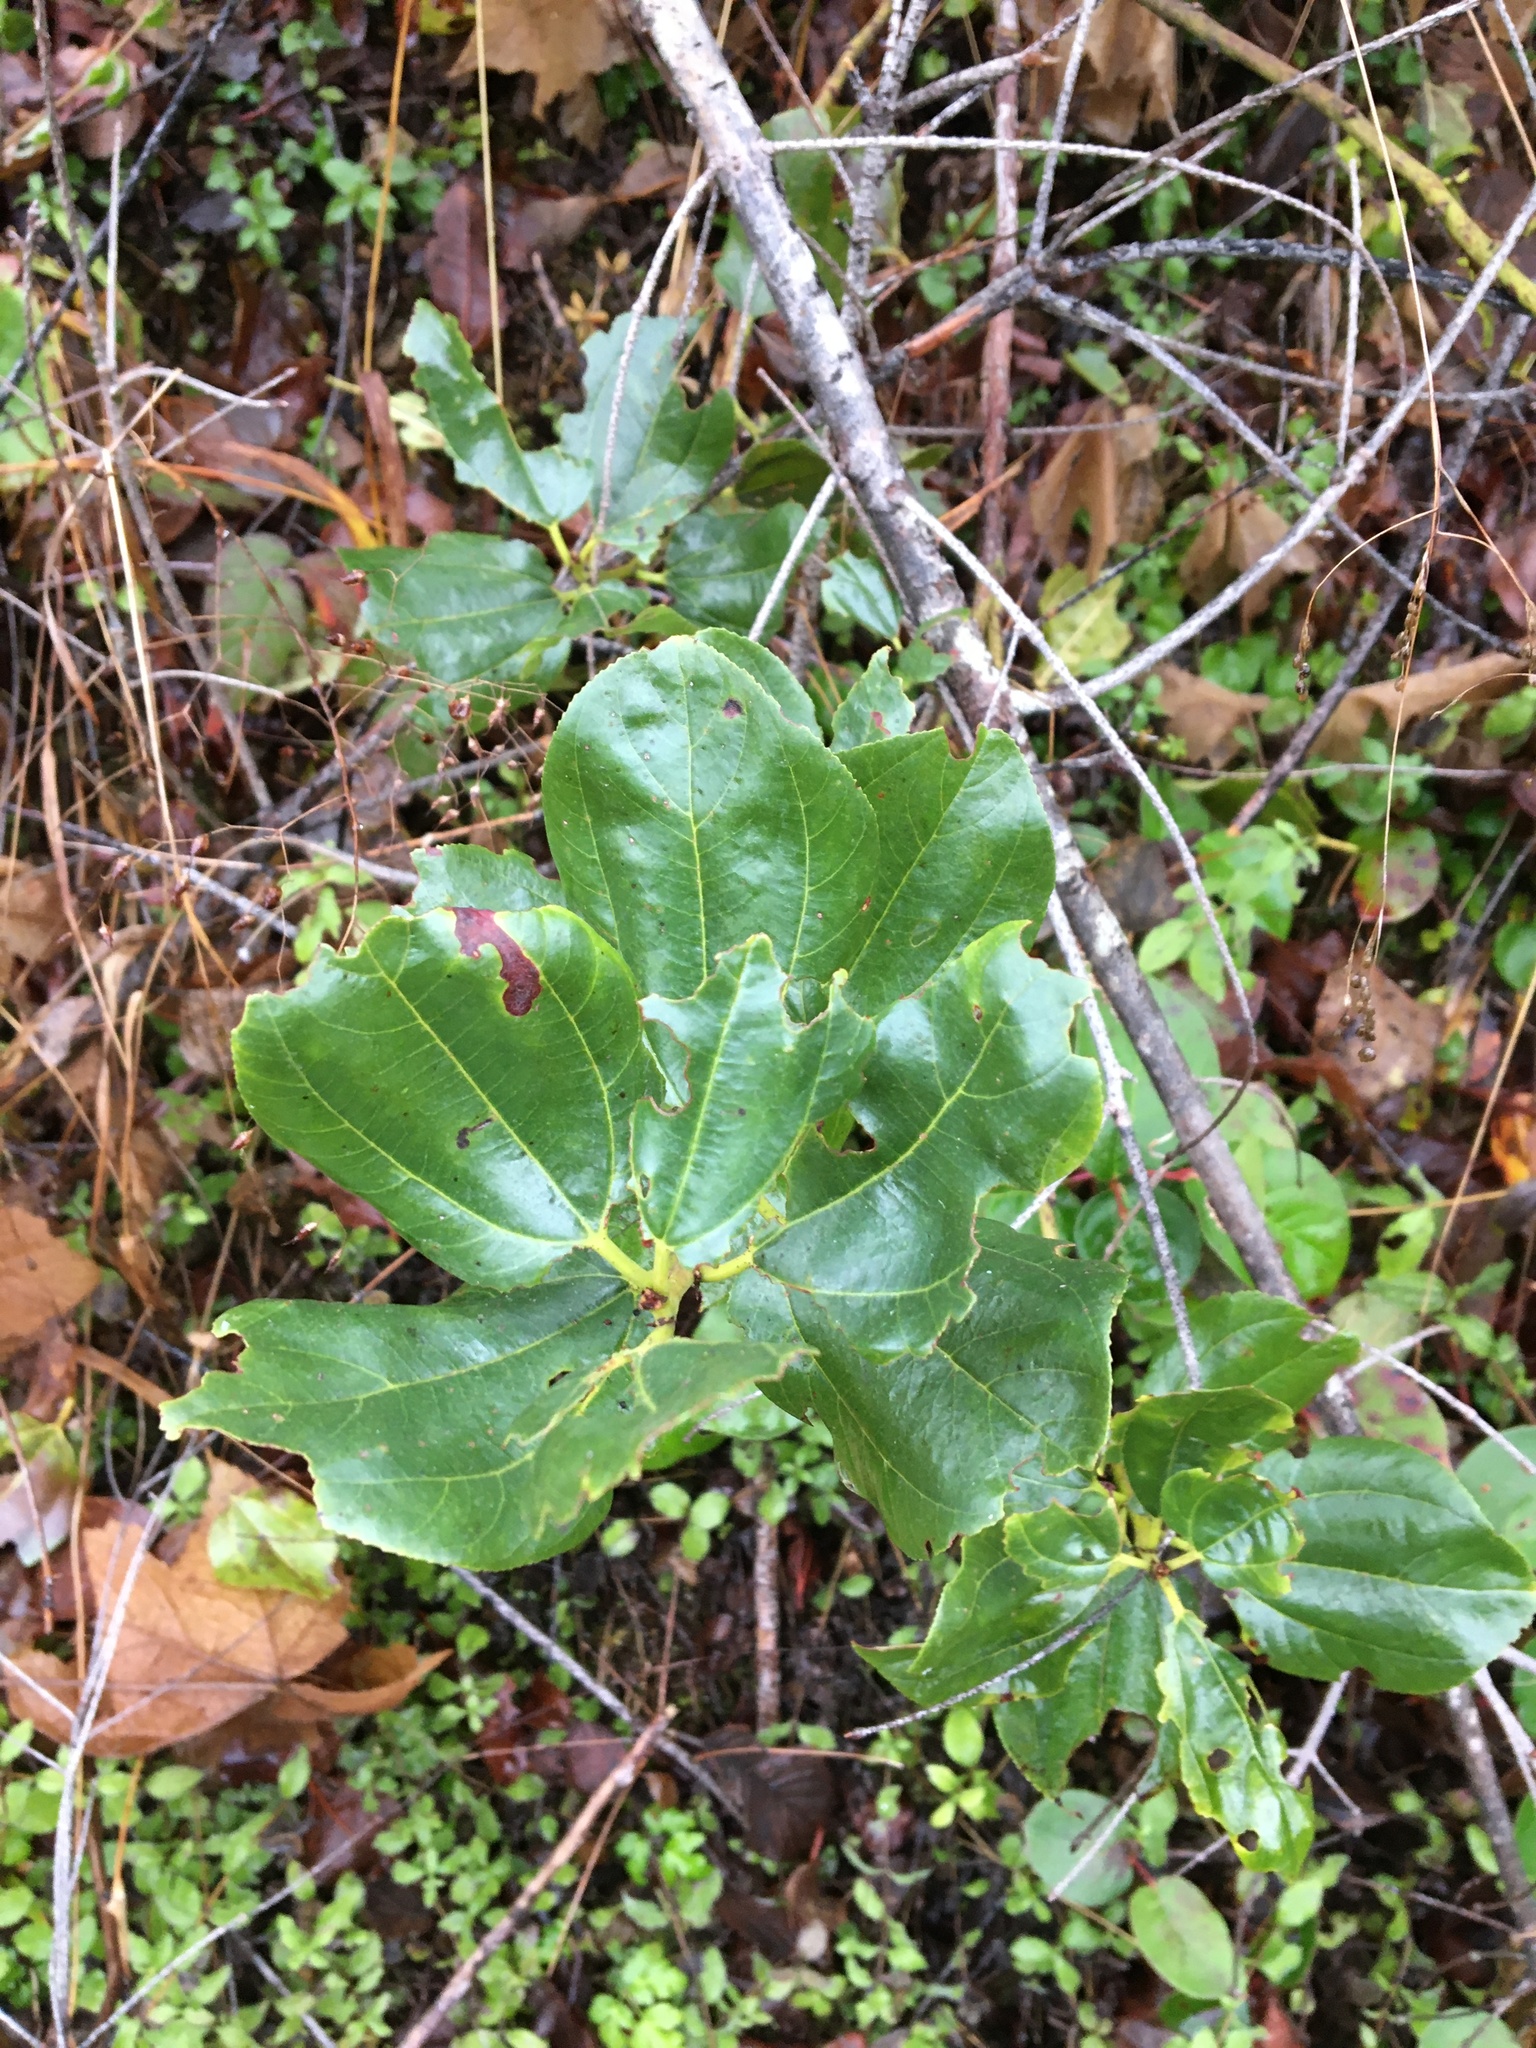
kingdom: Plantae
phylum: Tracheophyta
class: Magnoliopsida
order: Rosales
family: Rhamnaceae
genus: Ceanothus
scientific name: Ceanothus velutinus
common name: Snowbrush
